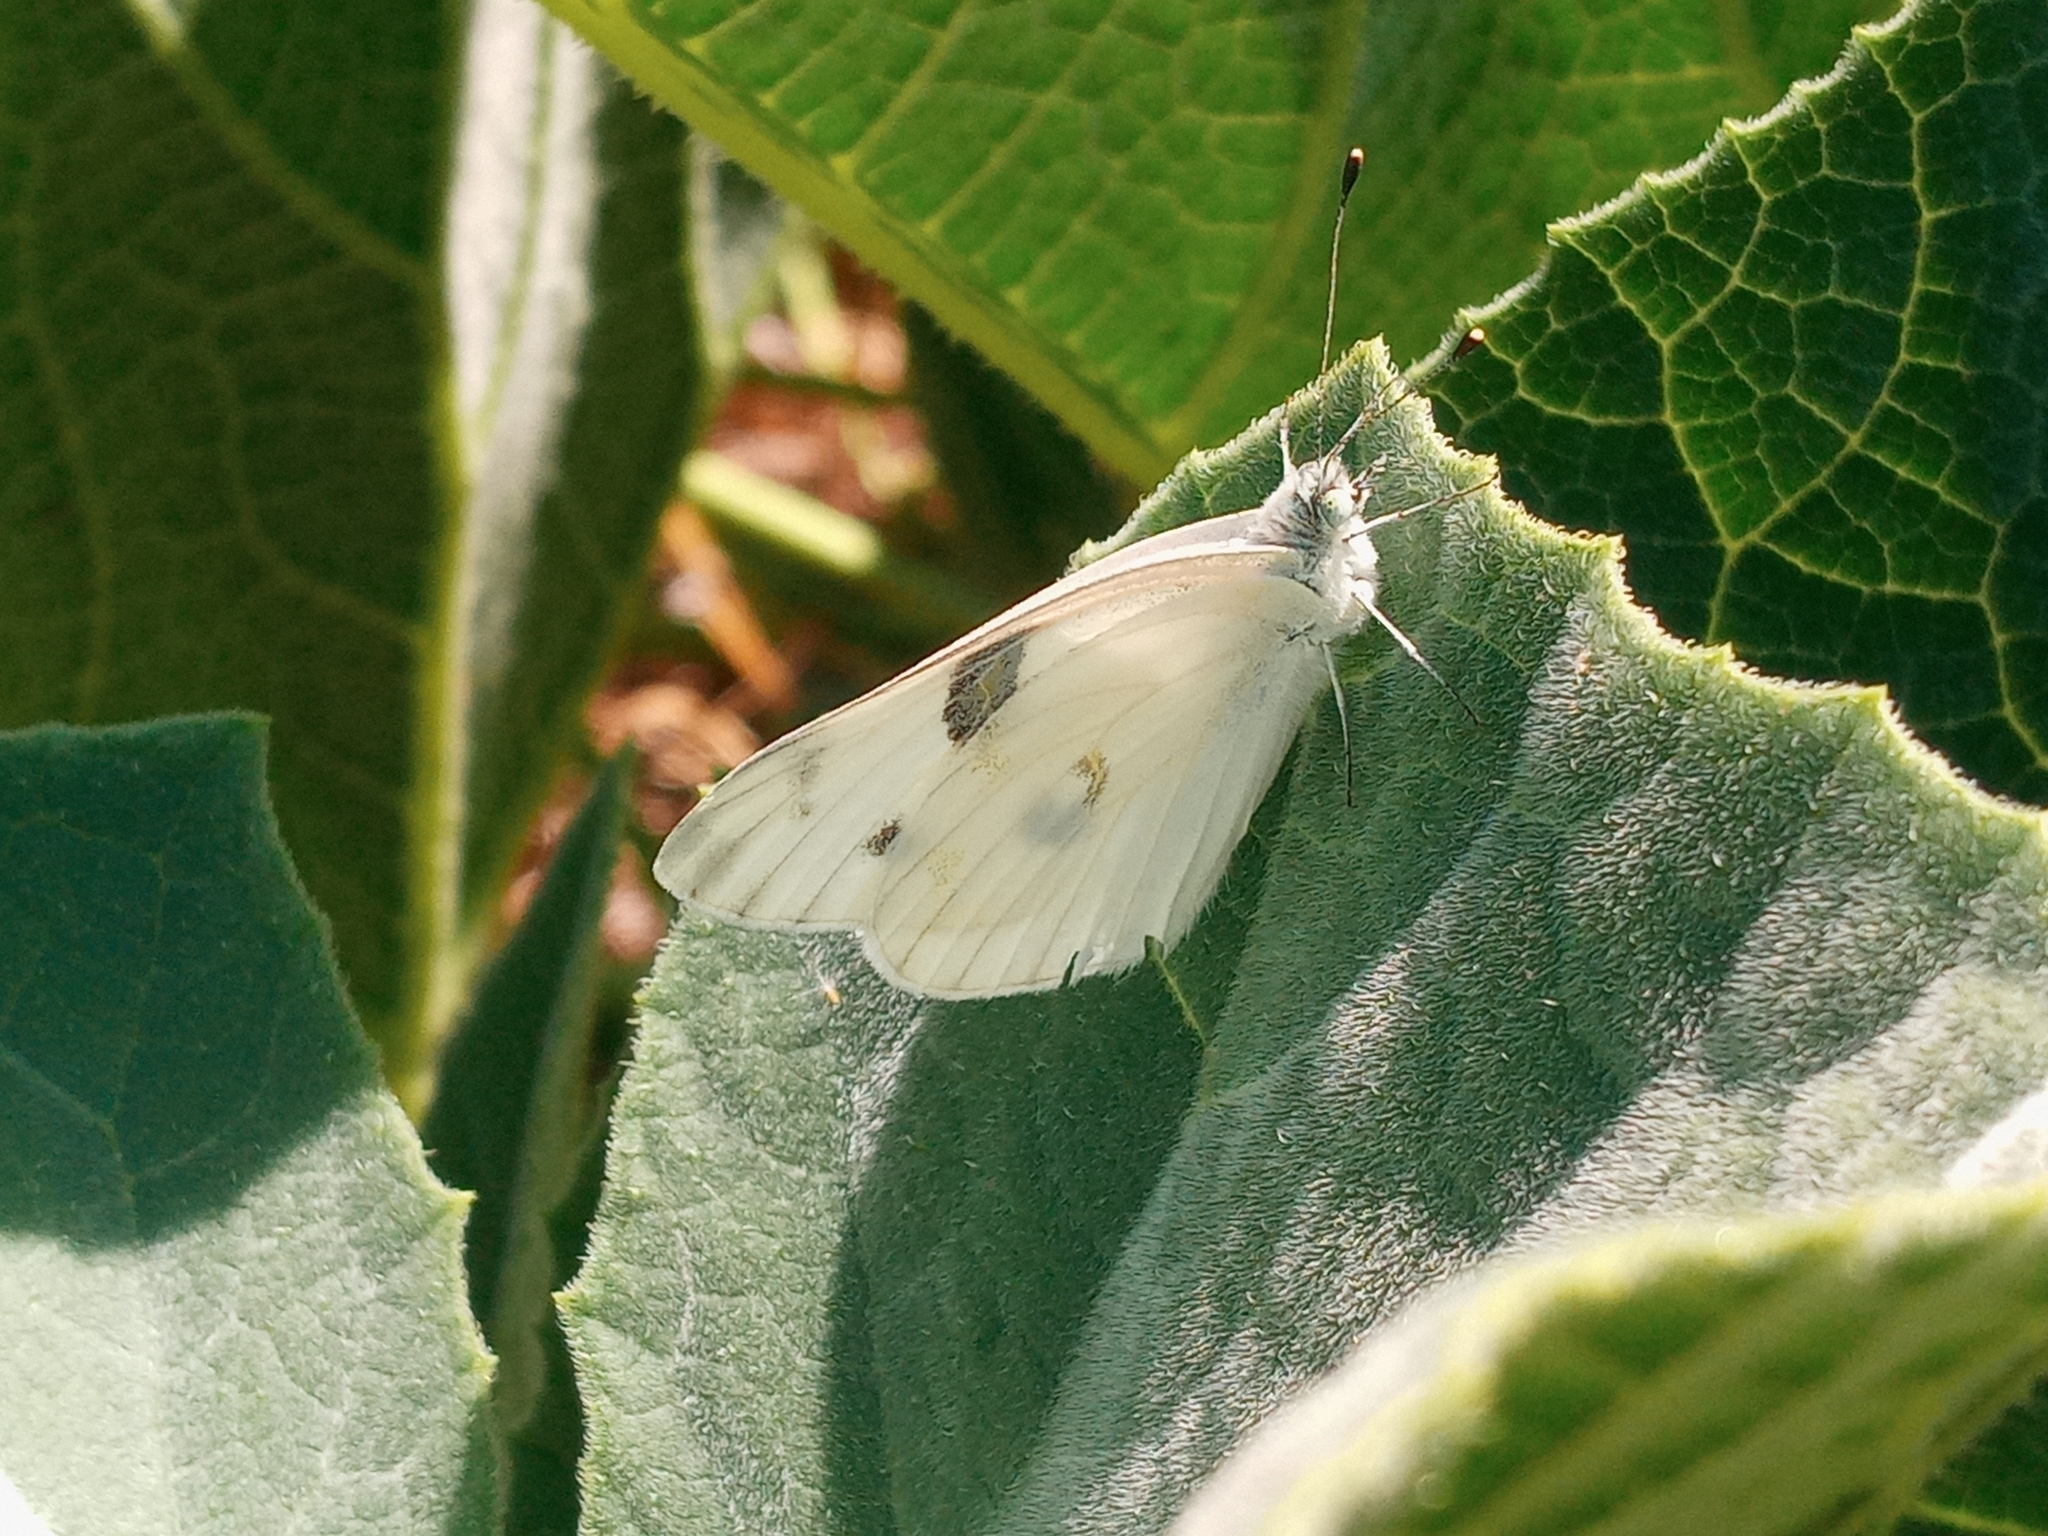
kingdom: Animalia
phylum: Arthropoda
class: Insecta
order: Lepidoptera
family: Pieridae
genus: Pontia
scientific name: Pontia protodice
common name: Checkered white
